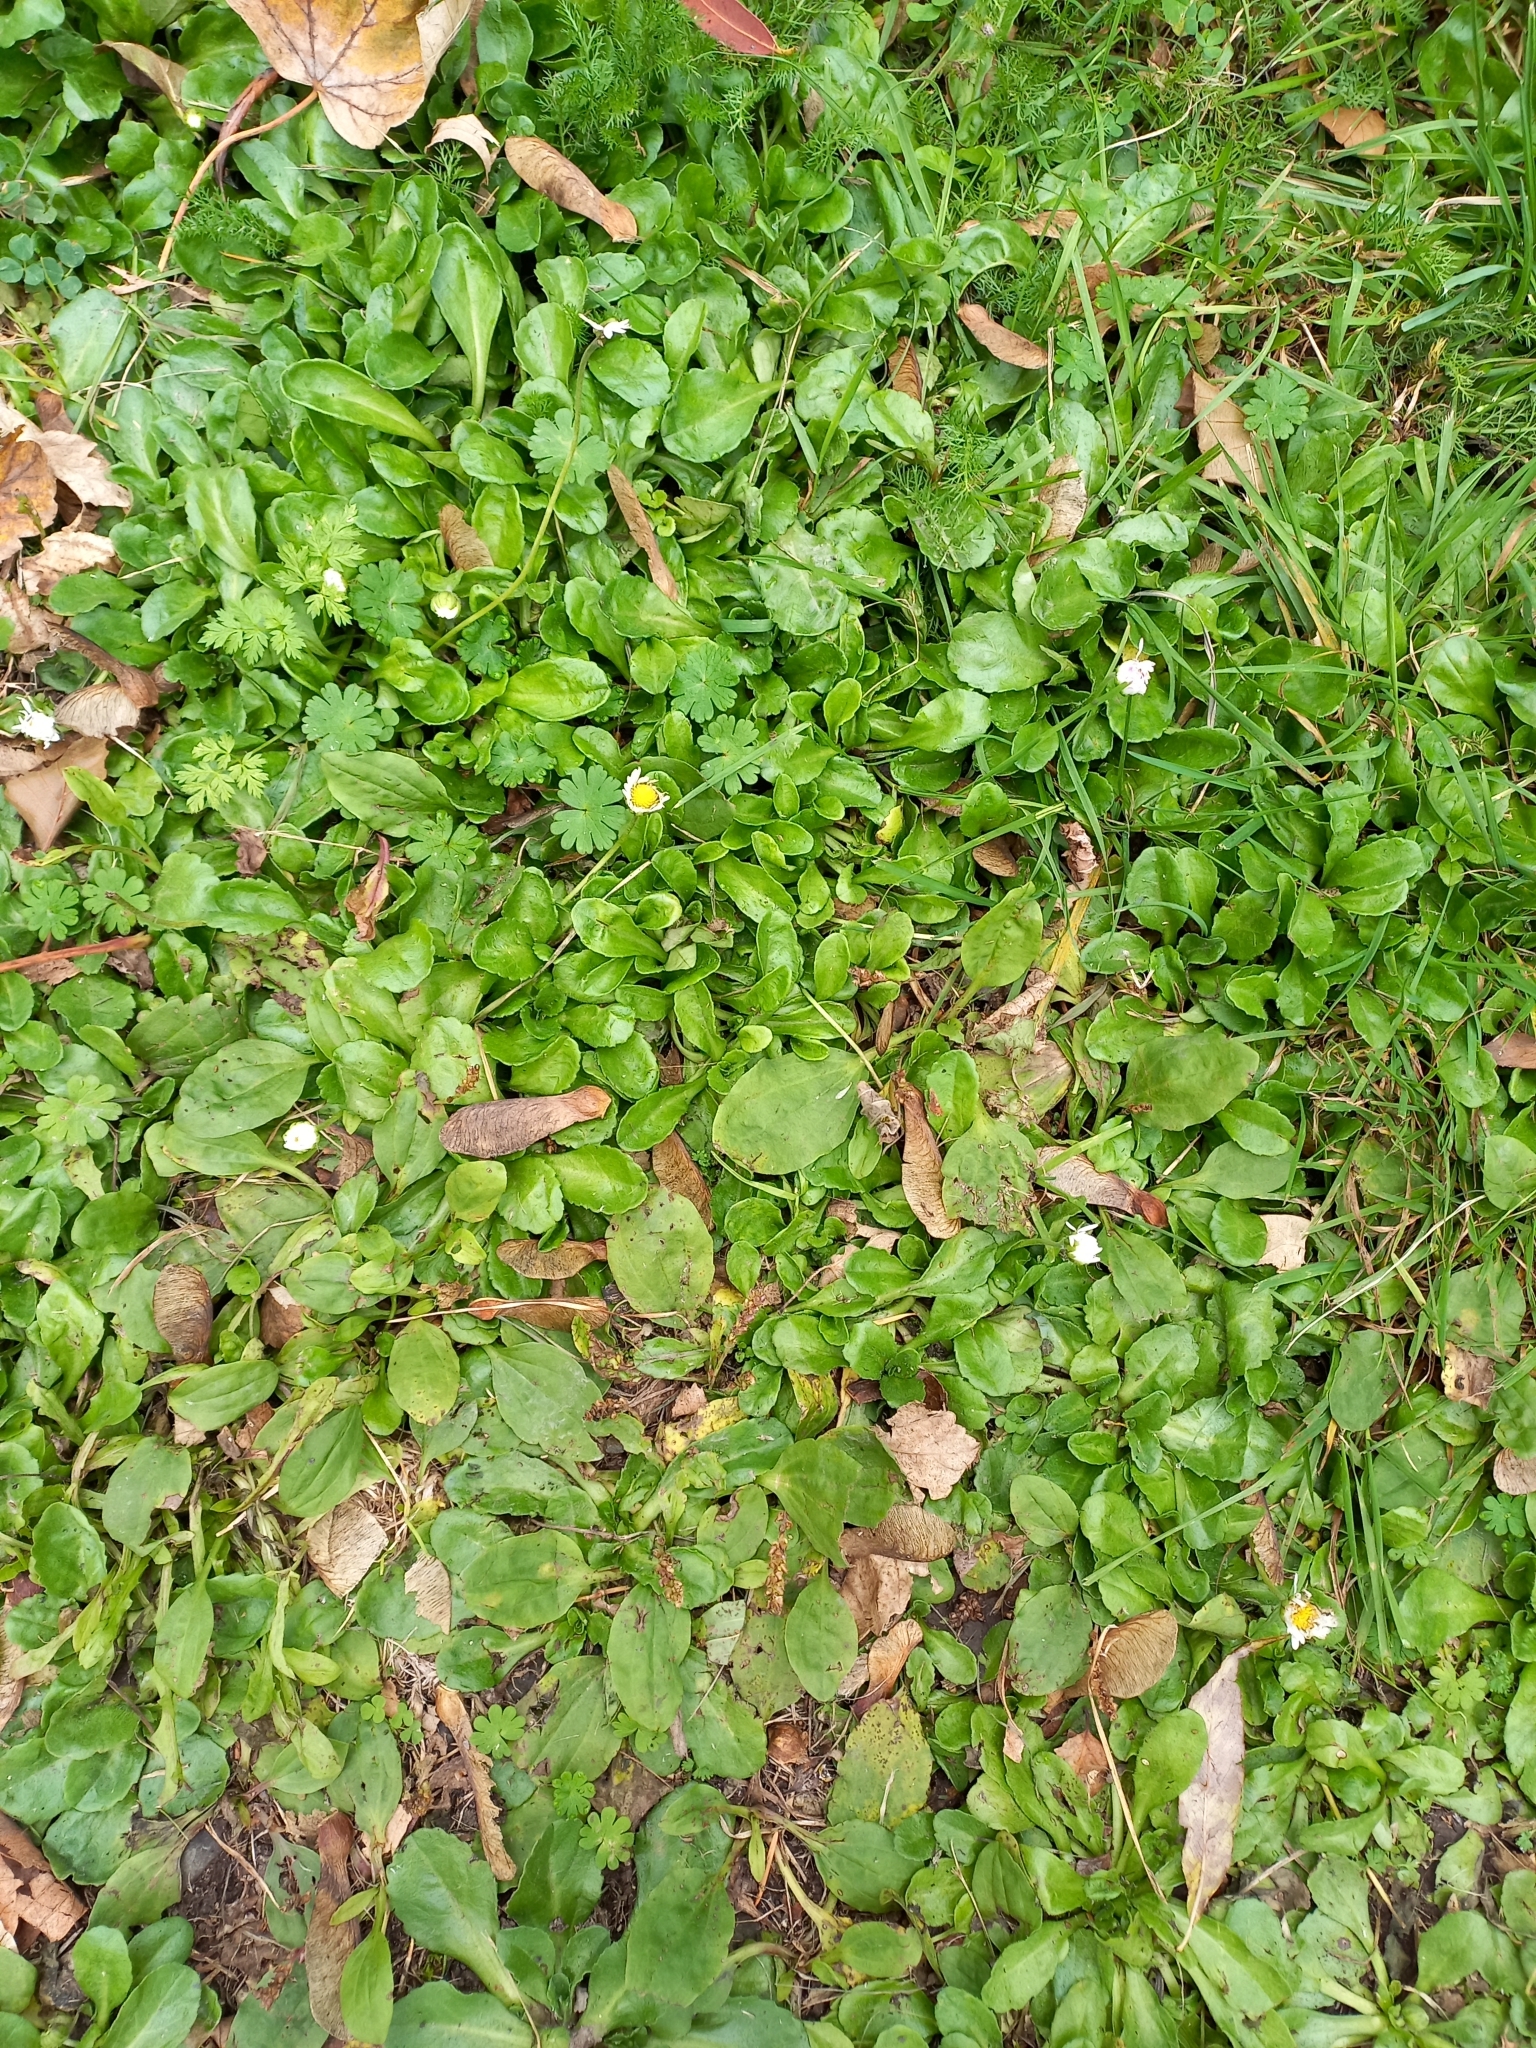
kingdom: Plantae
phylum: Tracheophyta
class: Magnoliopsida
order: Asterales
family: Asteraceae
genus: Bellis
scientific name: Bellis perennis
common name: Lawndaisy
